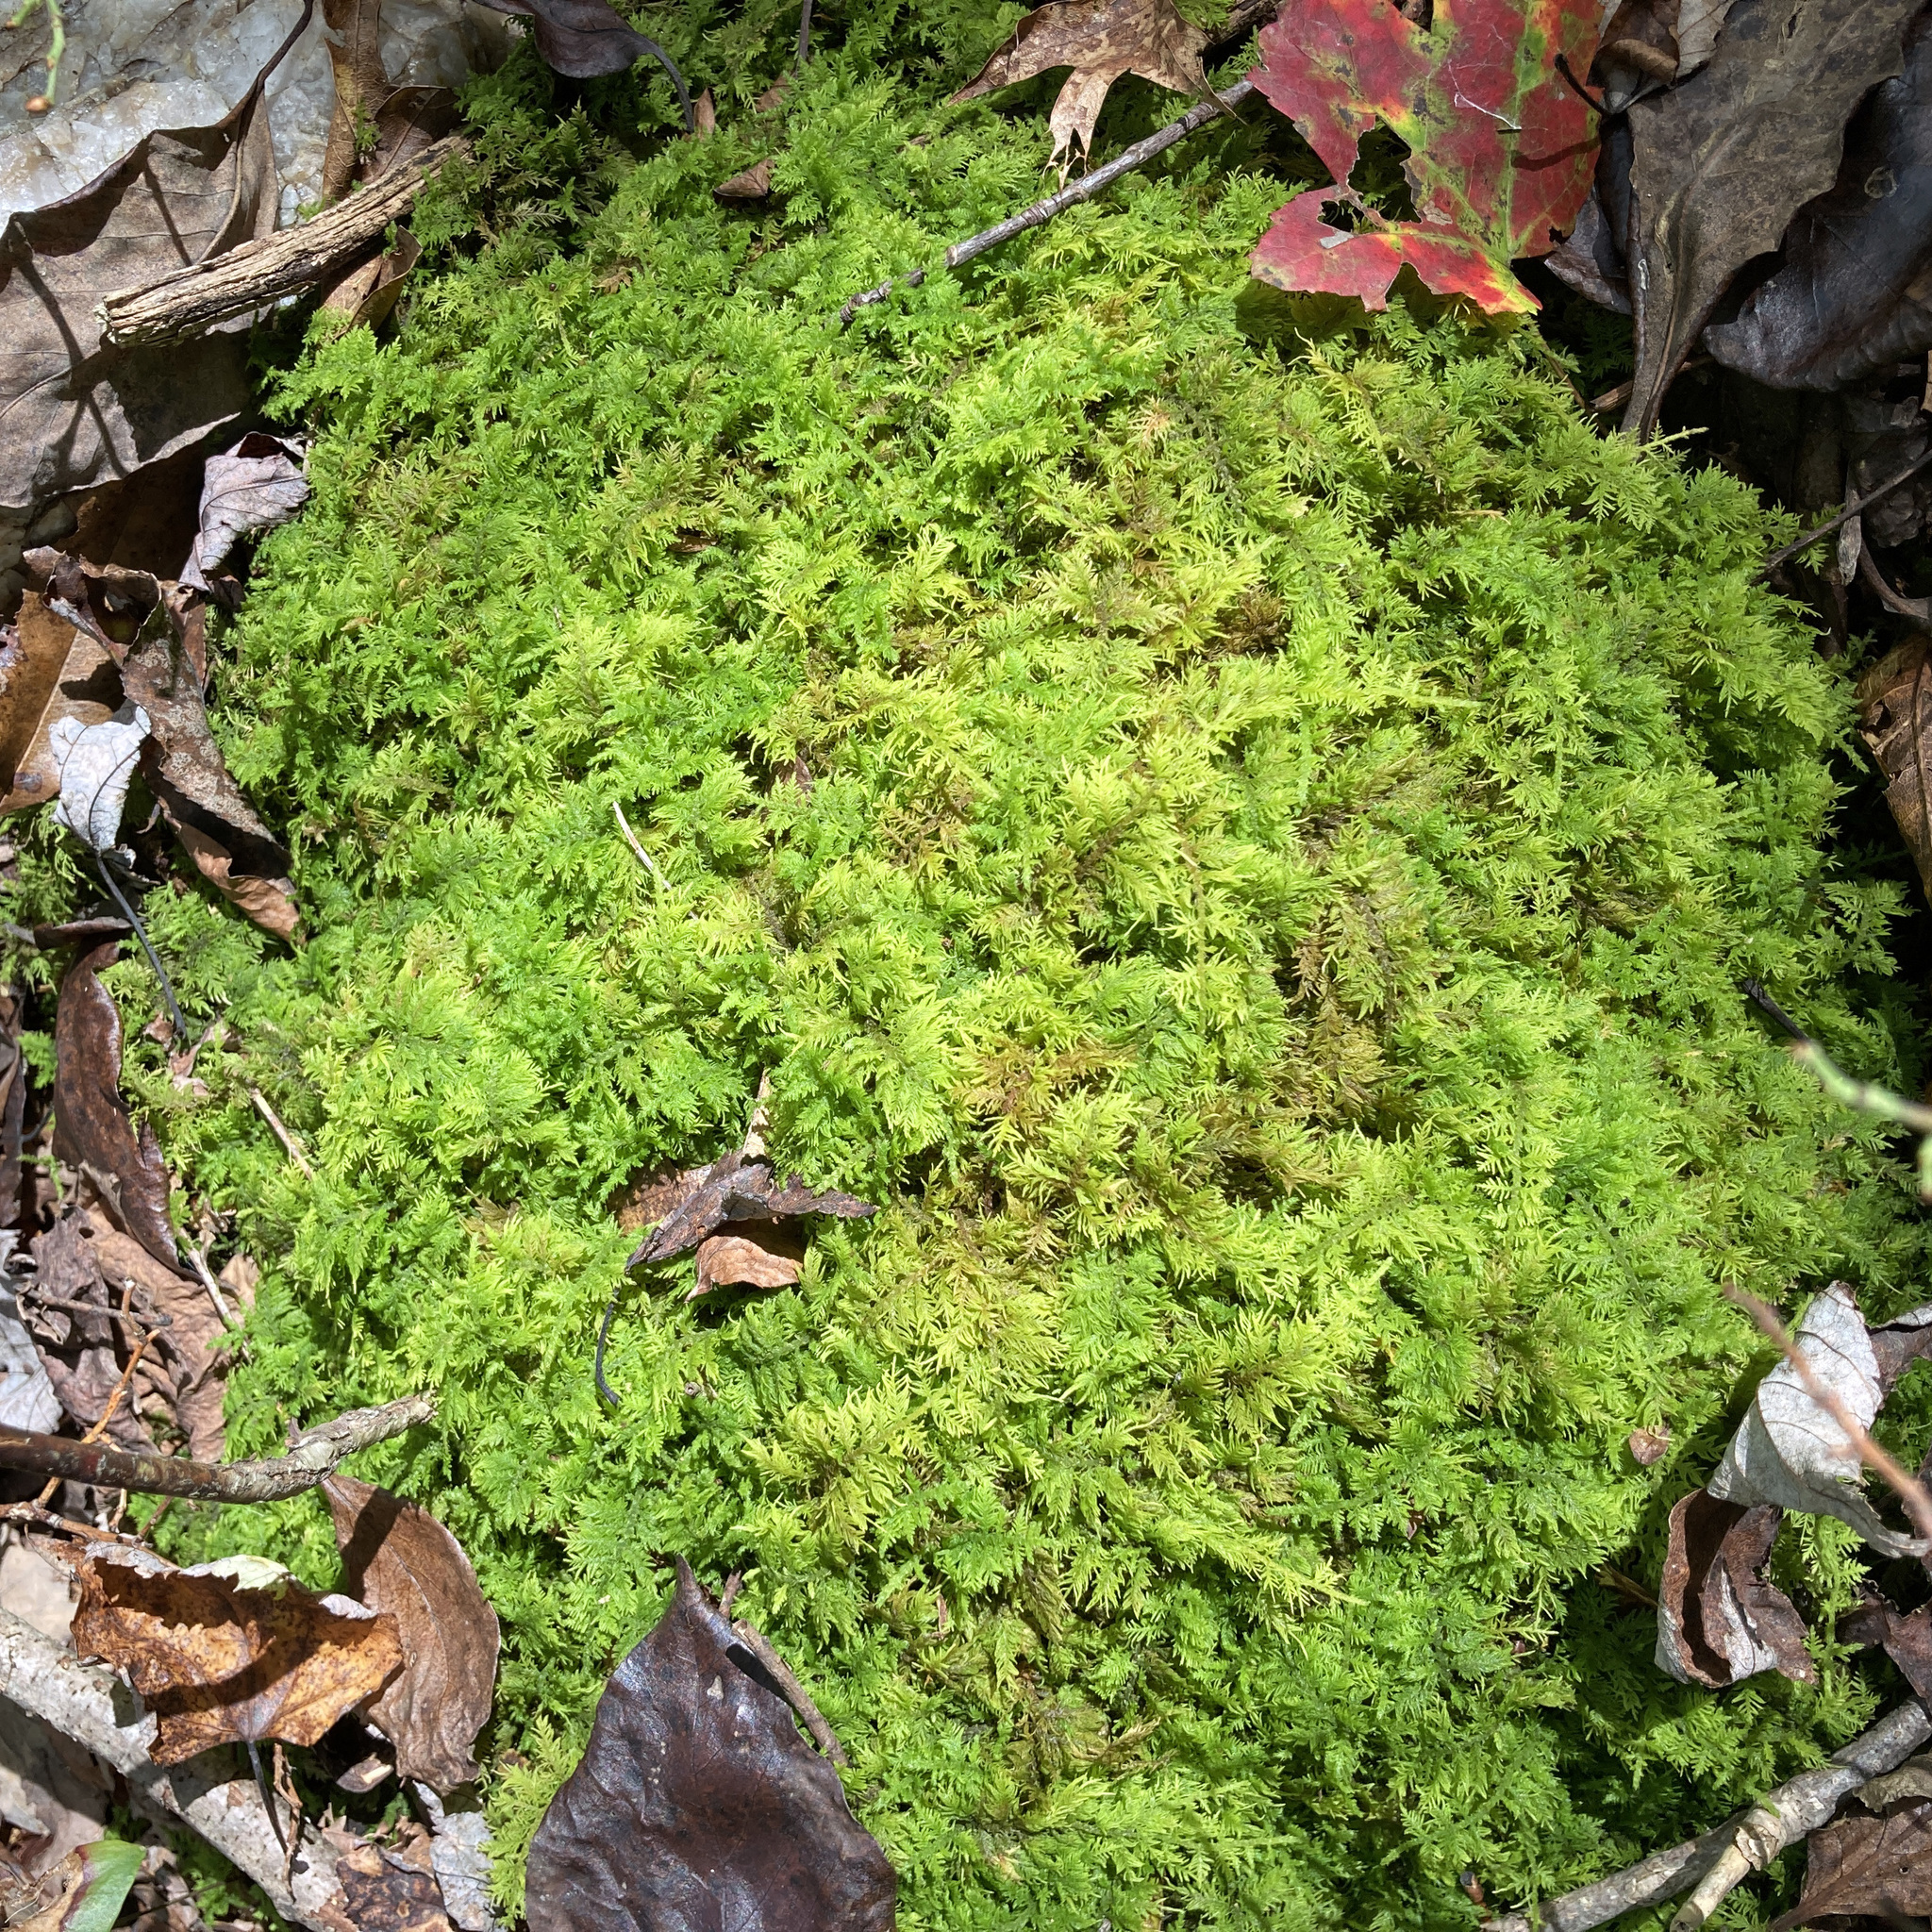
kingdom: Plantae
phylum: Bryophyta
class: Bryopsida
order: Hypnales
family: Thuidiaceae
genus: Thuidium
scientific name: Thuidium delicatulum
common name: Delicate fern moss
